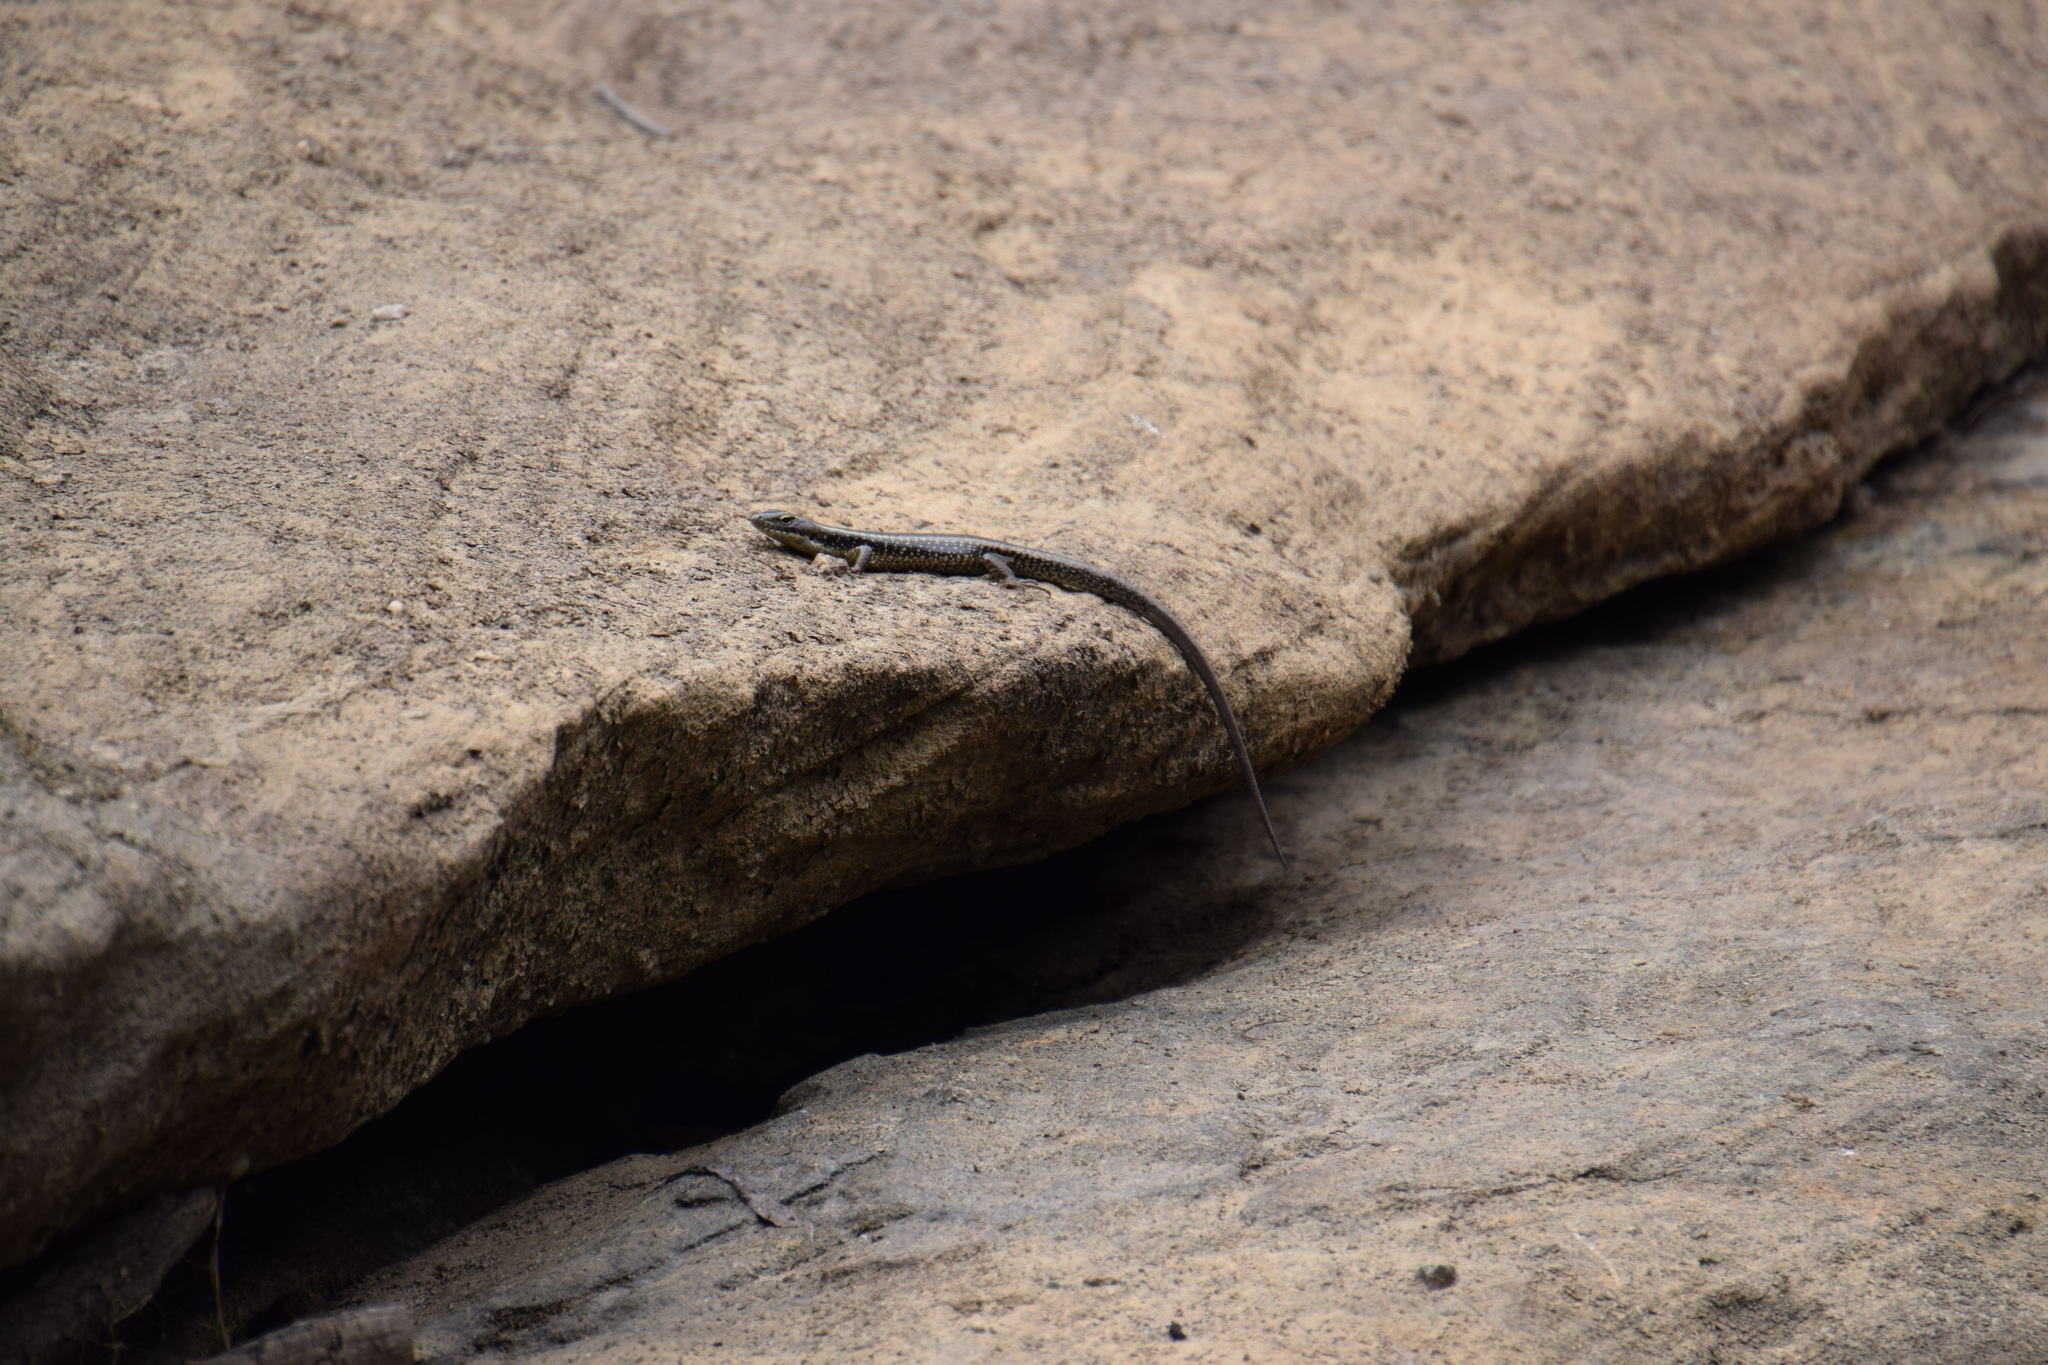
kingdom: Animalia
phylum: Chordata
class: Squamata
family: Scincidae
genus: Eulamprus
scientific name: Eulamprus quoyii
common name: Eastern water skink
